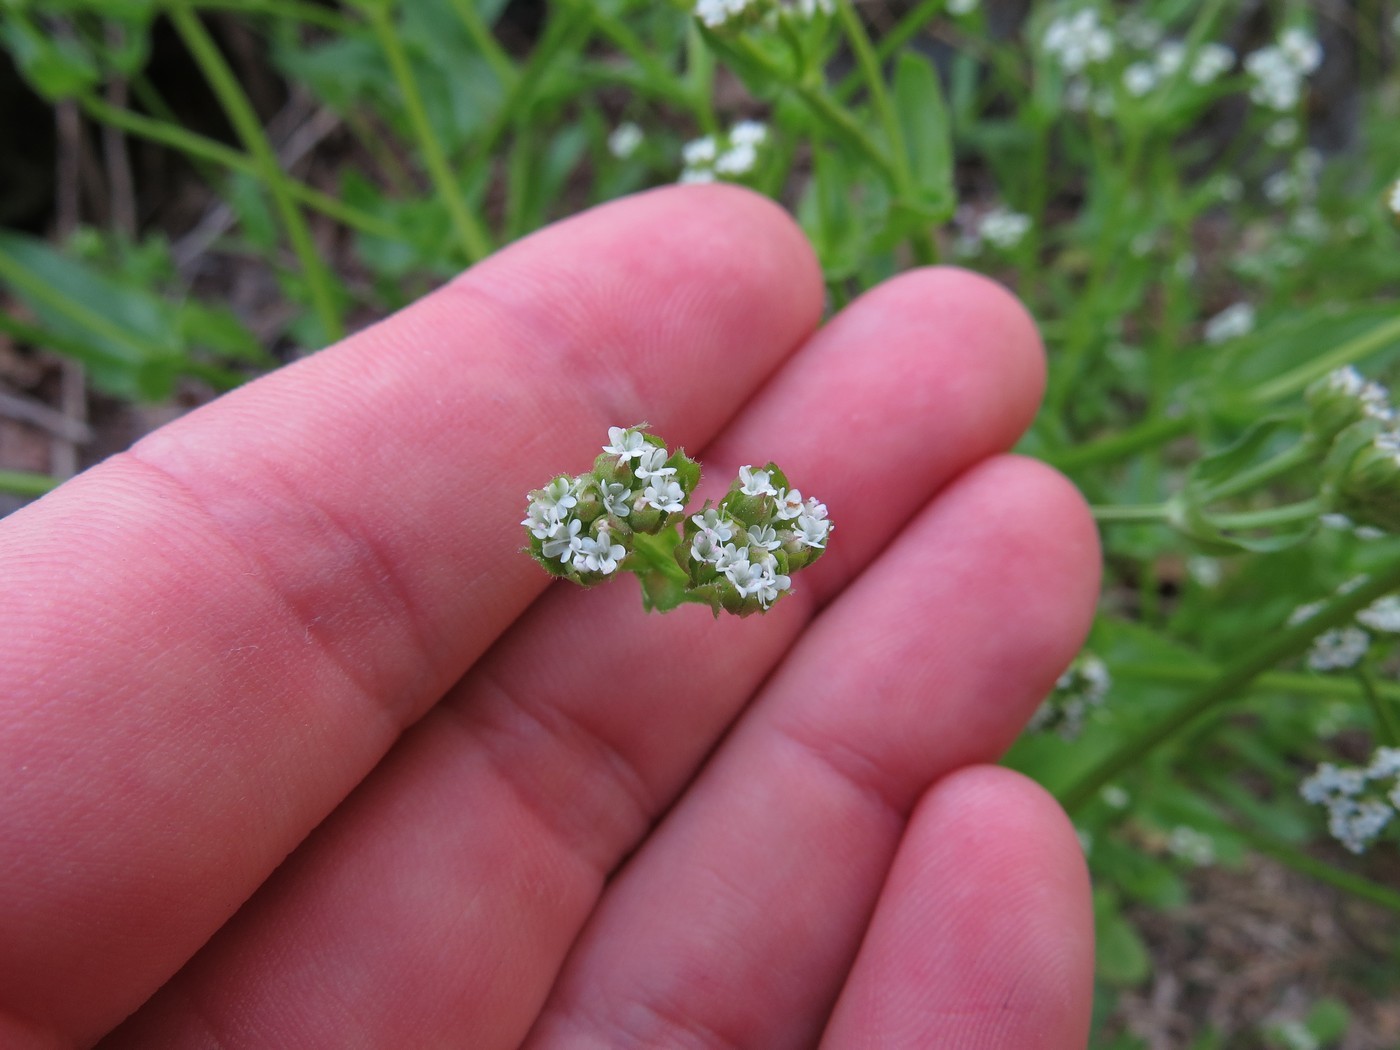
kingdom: Plantae
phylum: Tracheophyta
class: Magnoliopsida
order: Dipsacales
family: Caprifoliaceae
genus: Valerianella
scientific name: Valerianella radiata
